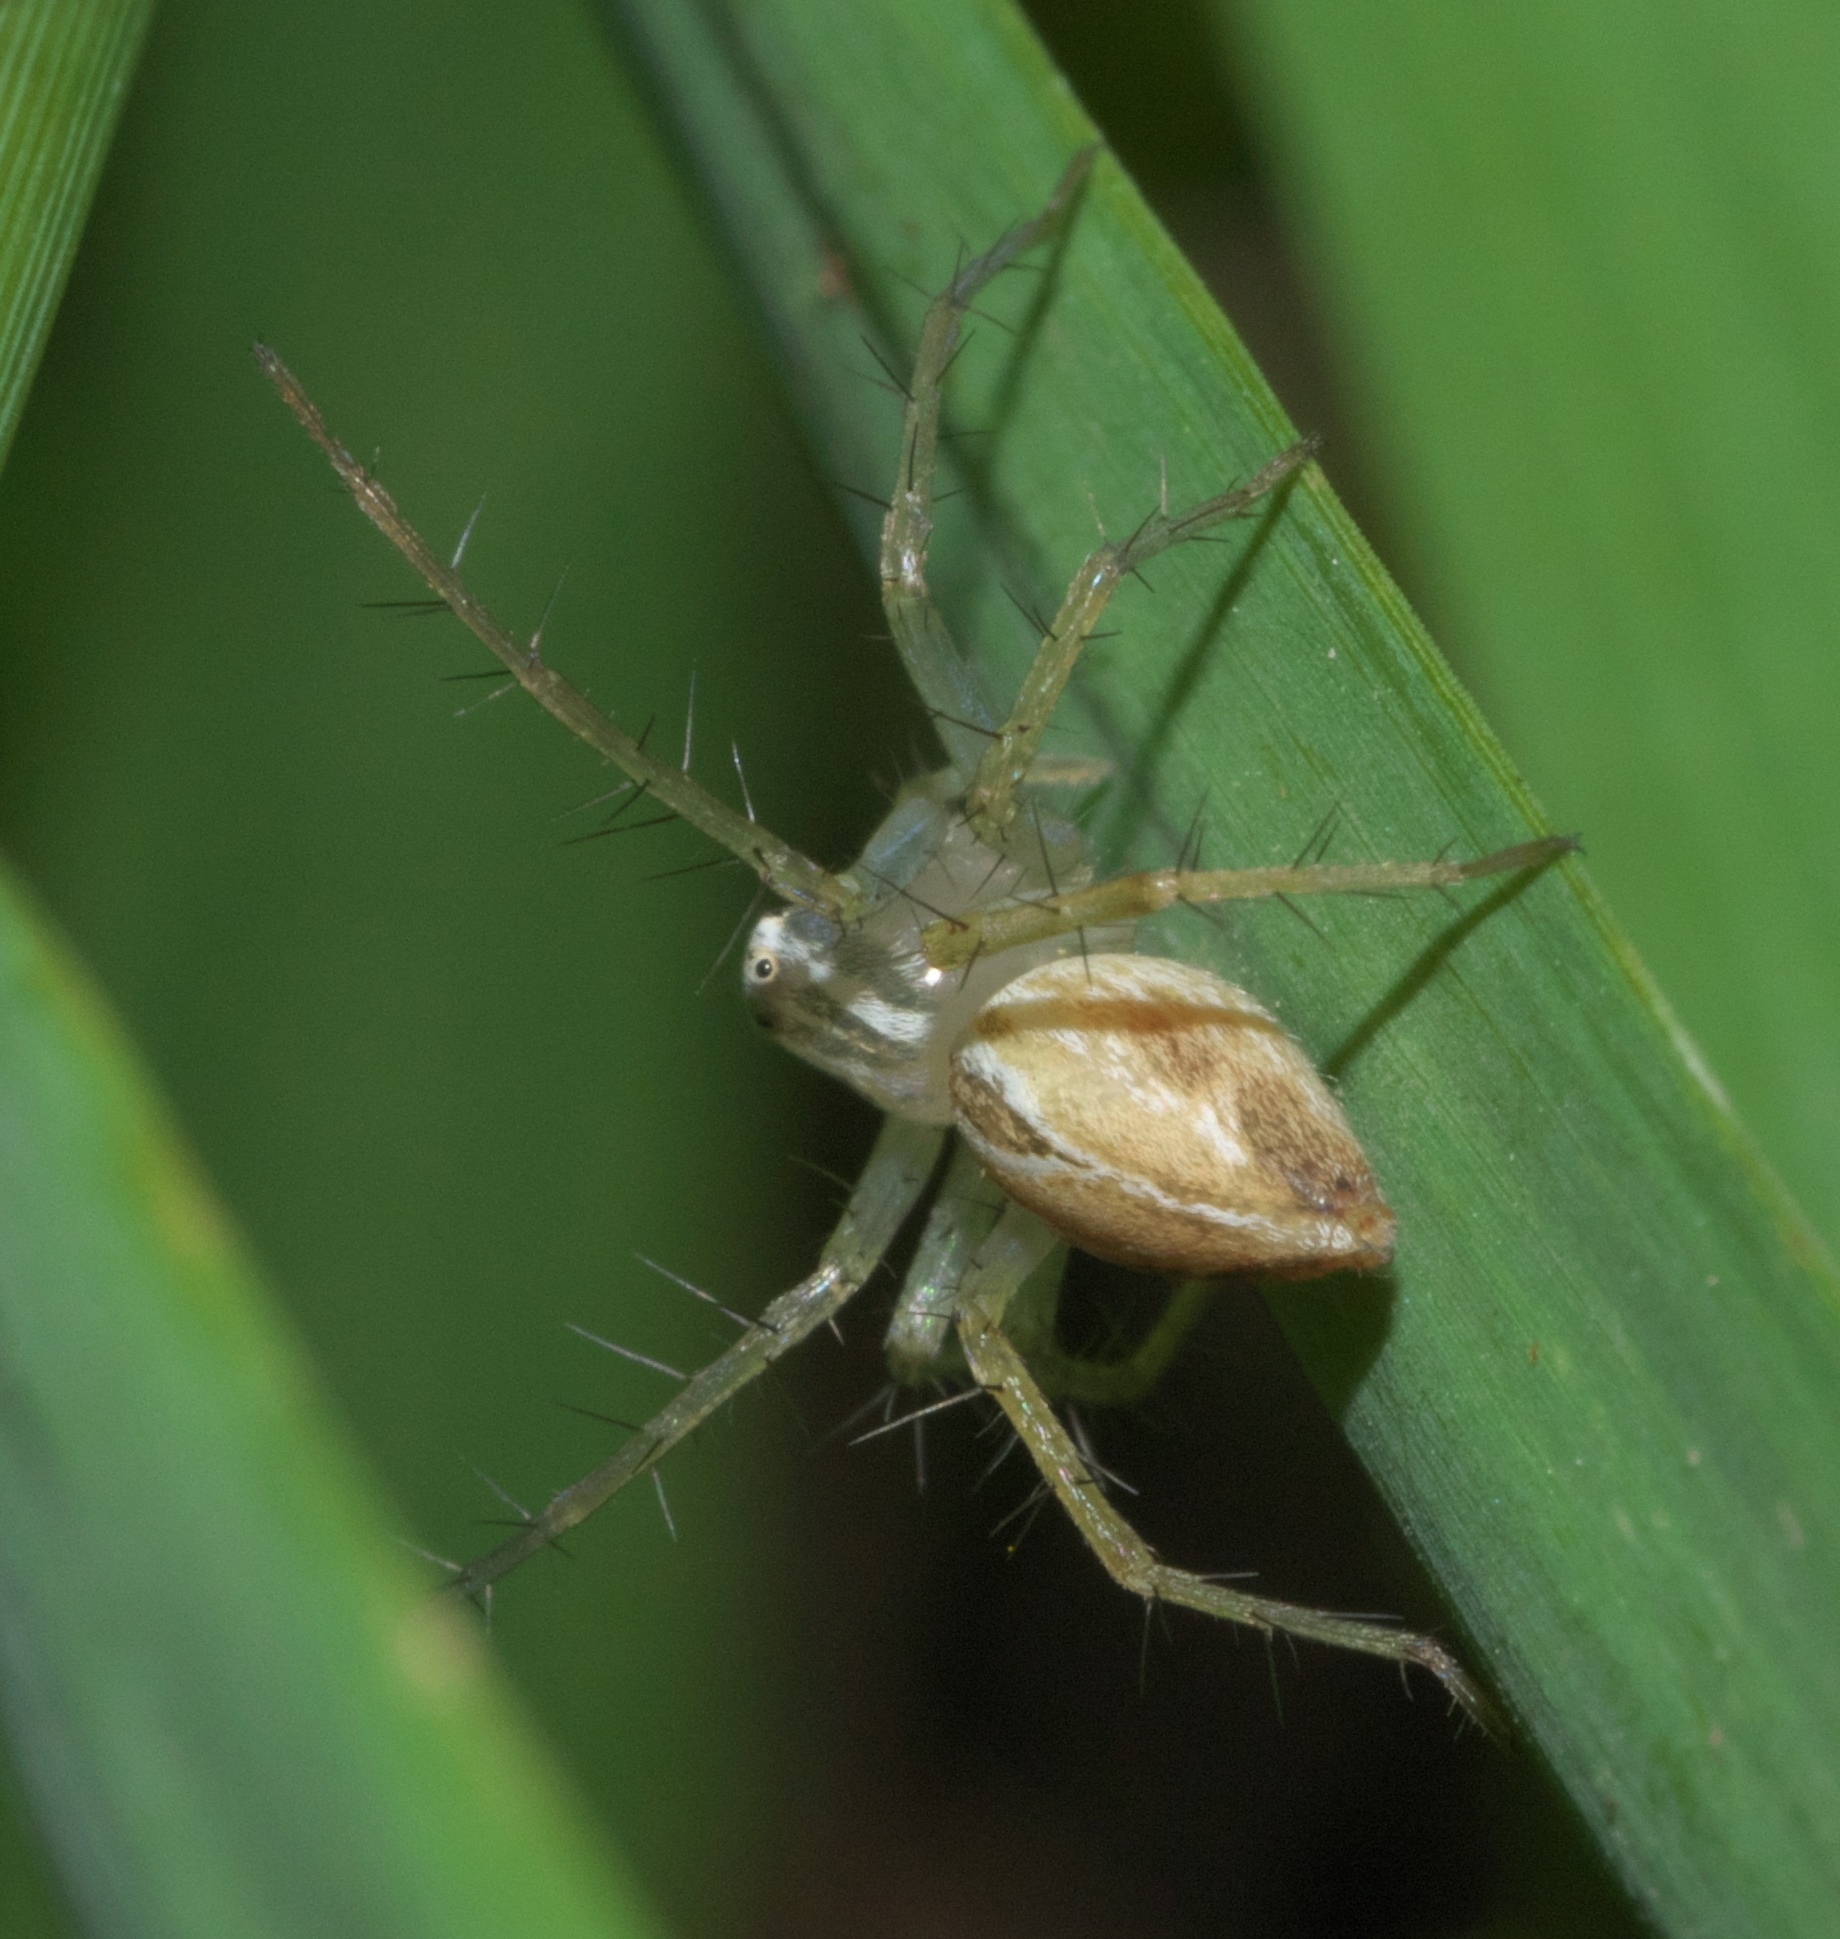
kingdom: Animalia
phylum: Arthropoda
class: Arachnida
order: Araneae
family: Oxyopidae
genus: Oxyopes
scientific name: Oxyopes salticus
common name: Lynx spiders
